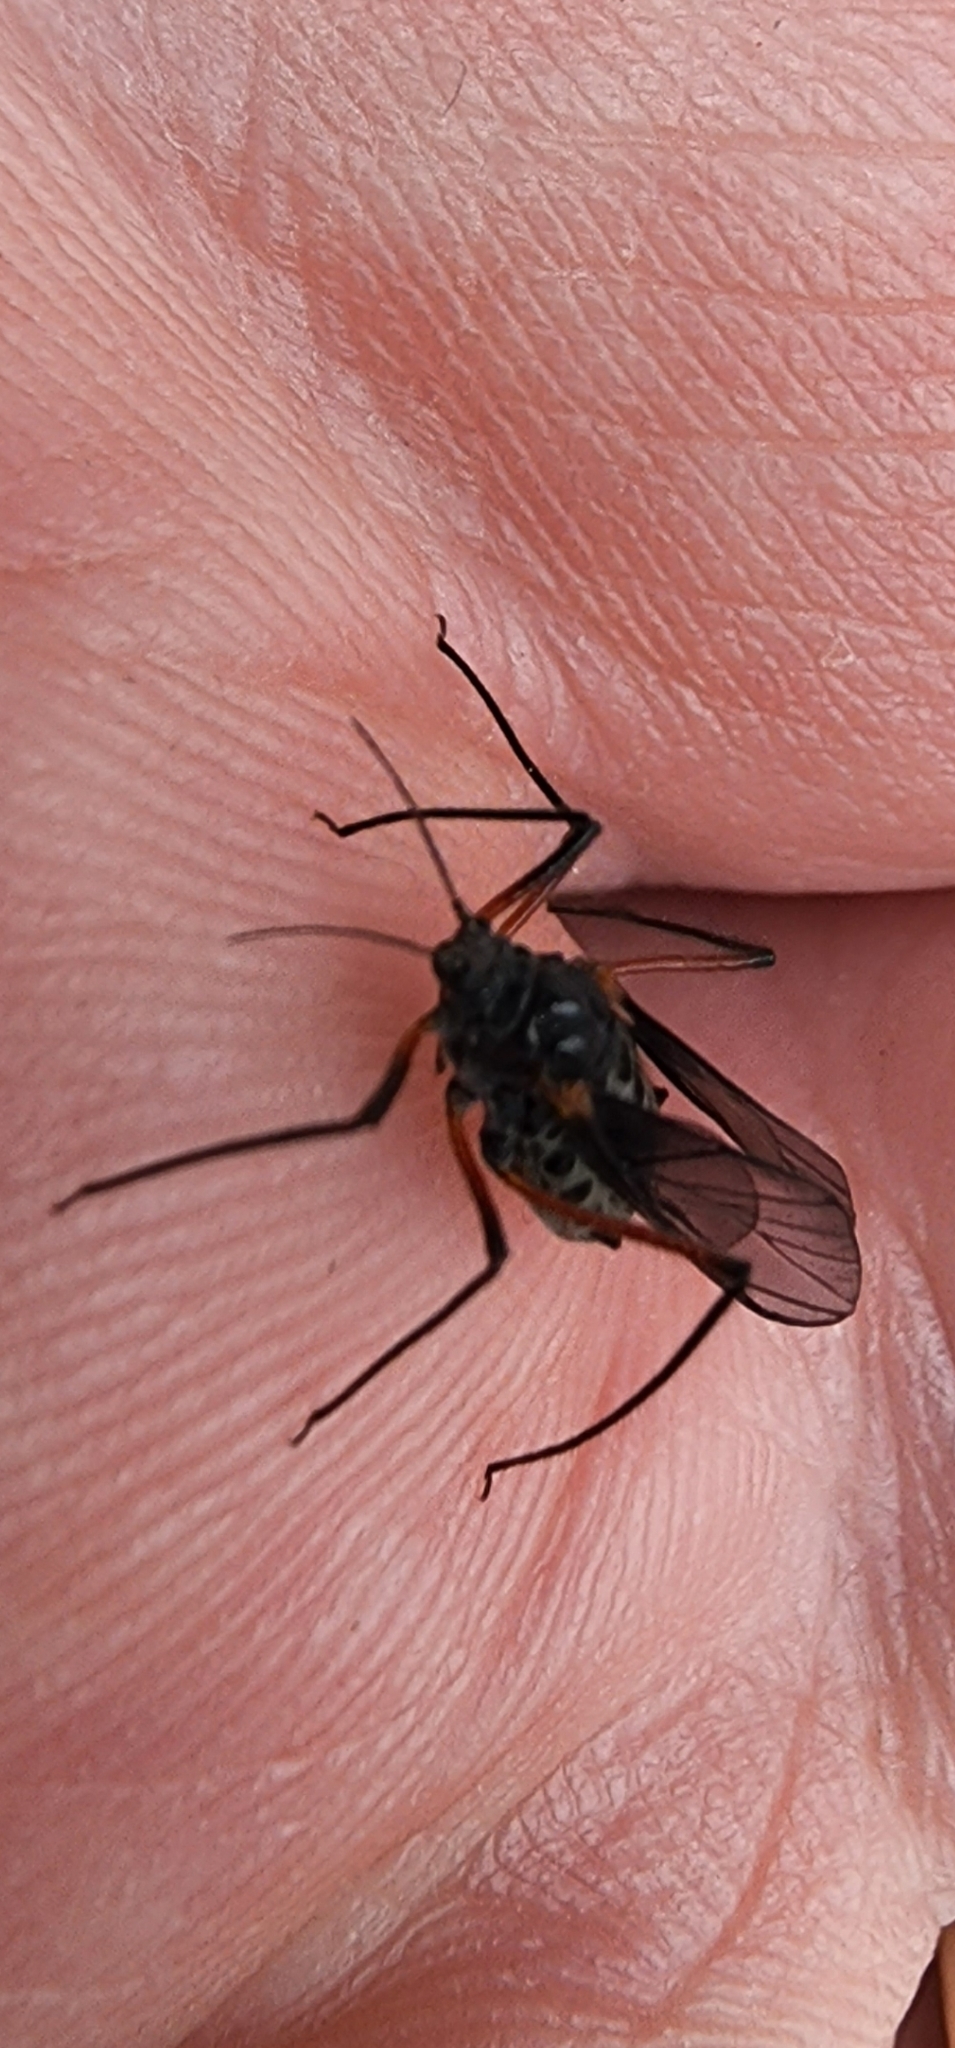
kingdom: Animalia
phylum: Arthropoda
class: Insecta
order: Hemiptera
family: Aphididae
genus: Longistigma
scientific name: Longistigma caryae
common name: Giant bark aphid
